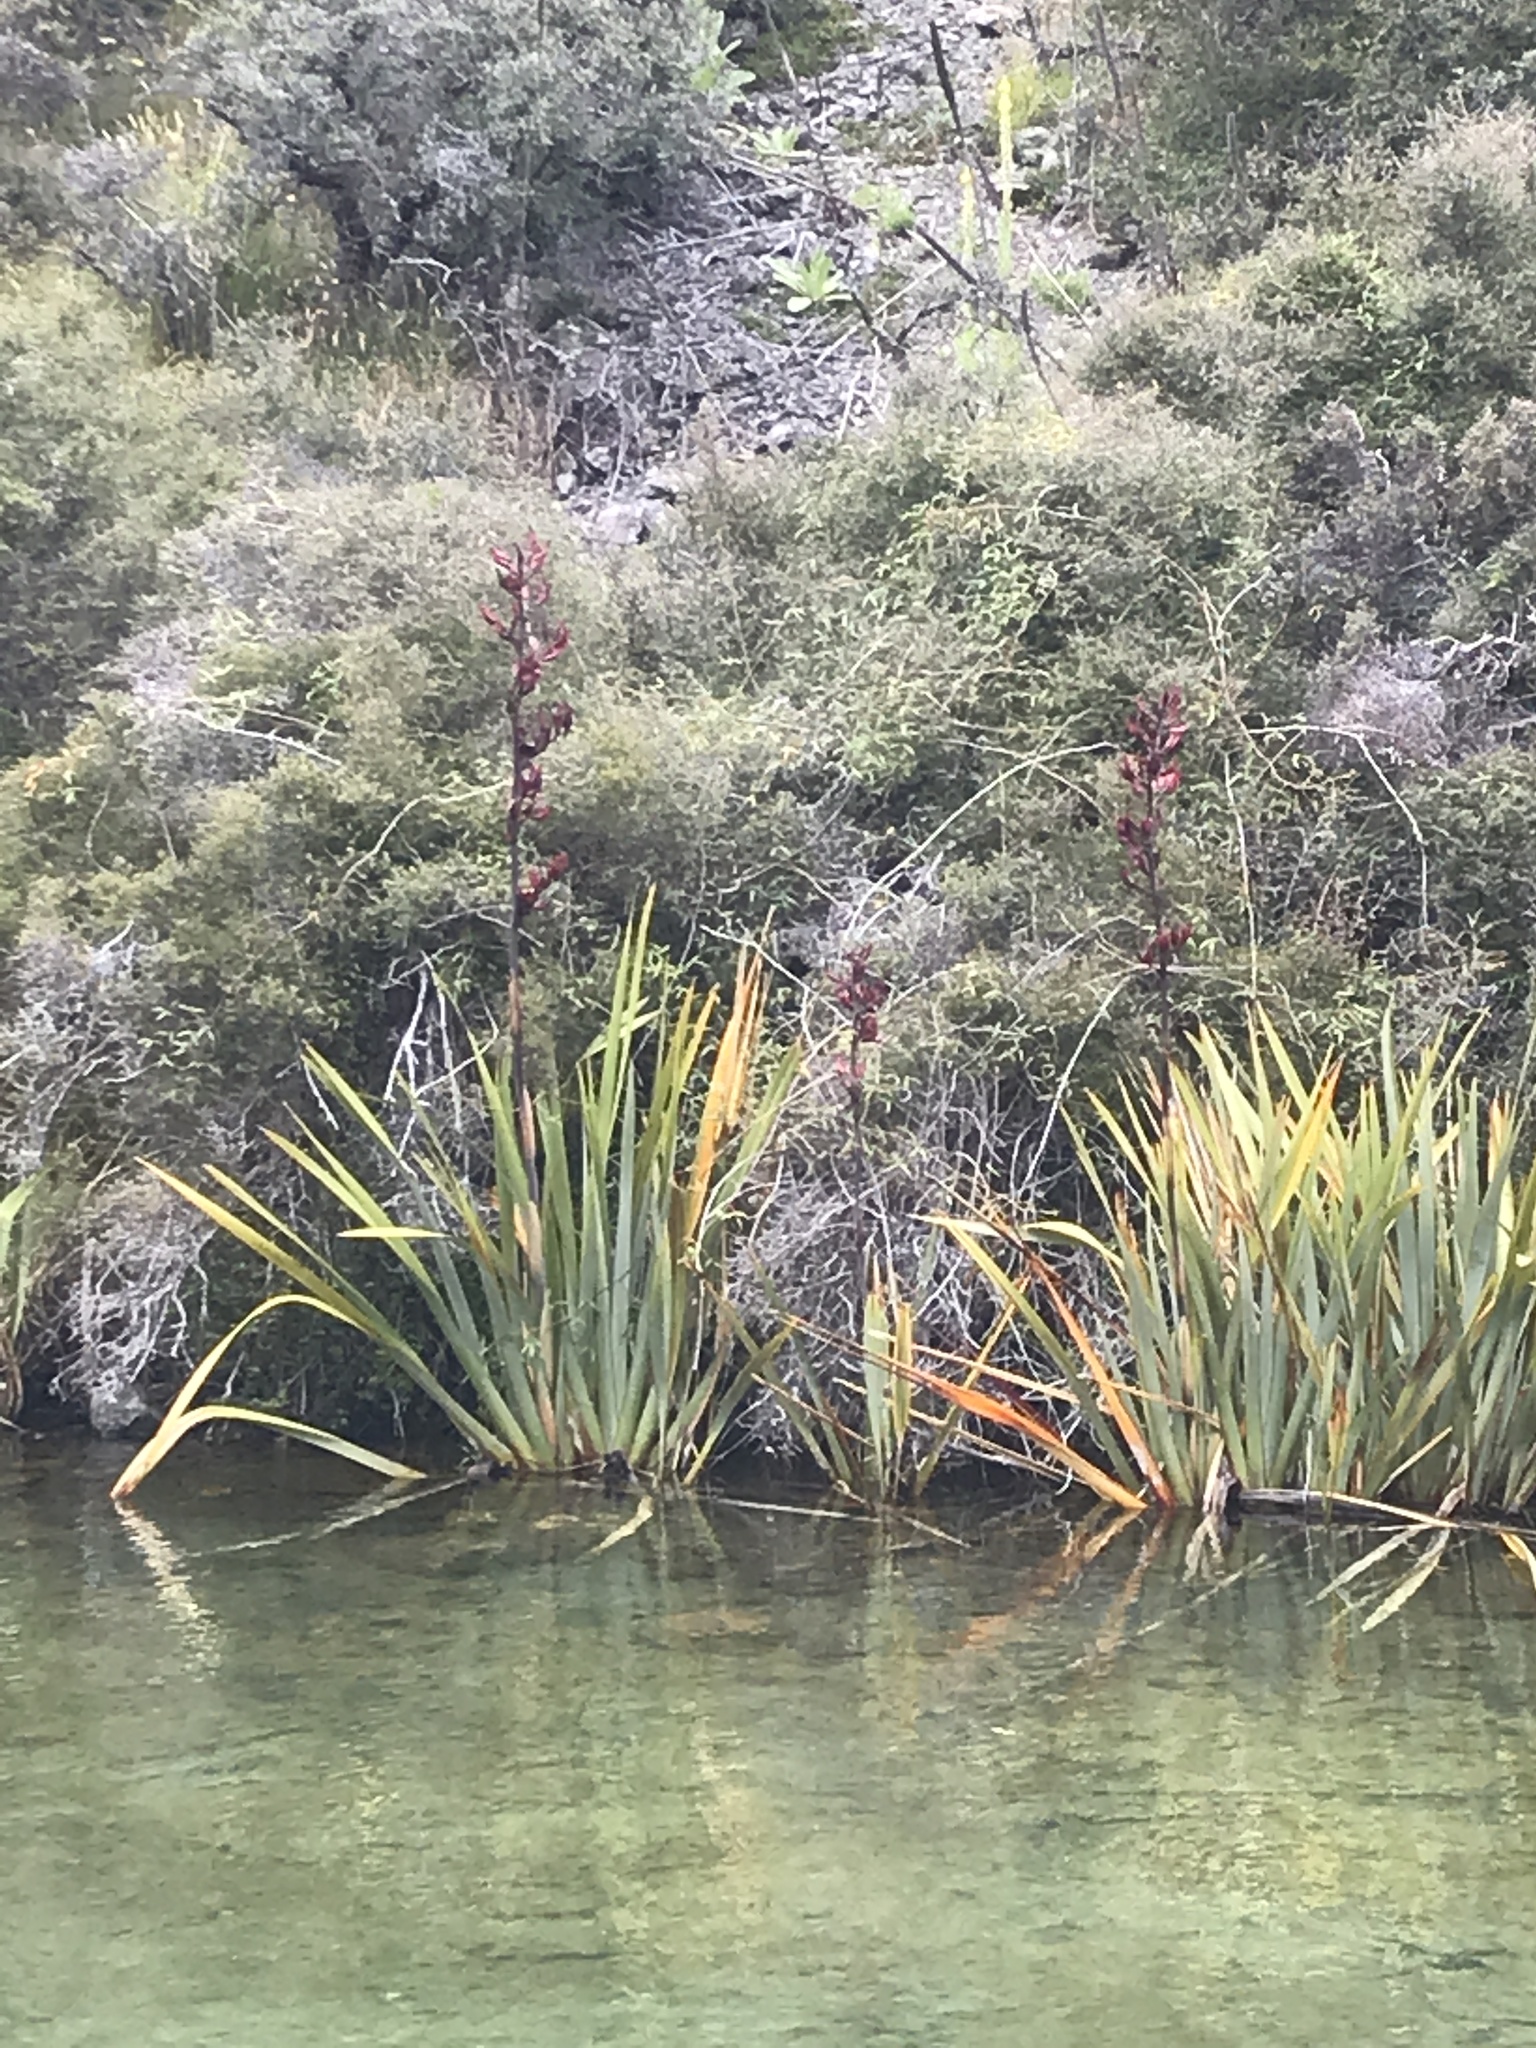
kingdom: Plantae
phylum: Tracheophyta
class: Liliopsida
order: Asparagales
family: Asphodelaceae
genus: Phormium
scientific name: Phormium tenax
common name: New zealand flax
